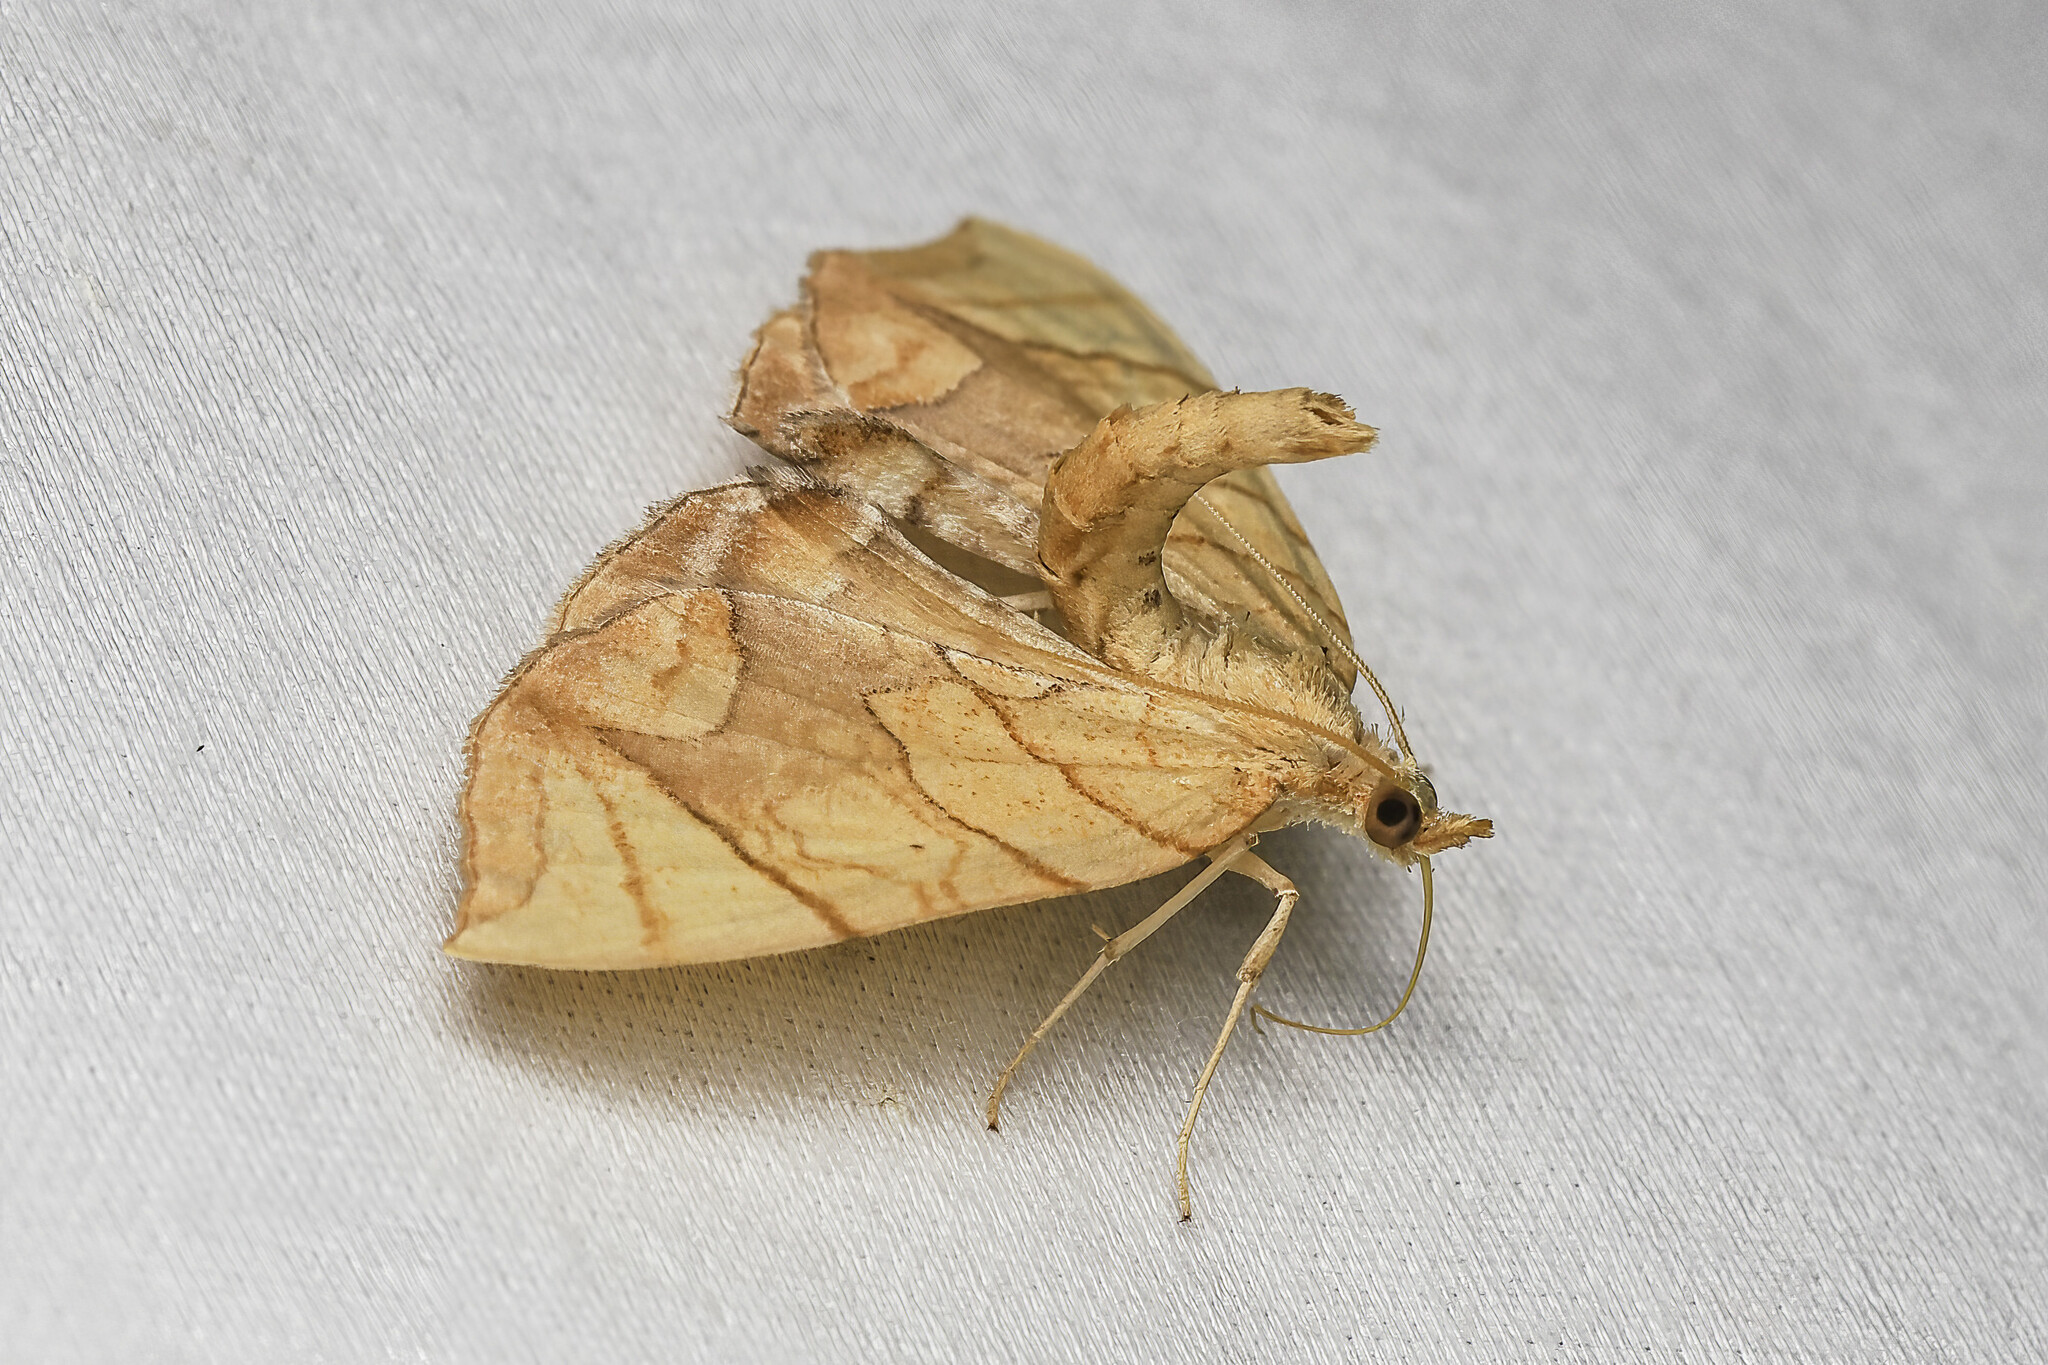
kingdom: Animalia
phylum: Arthropoda
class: Insecta
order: Lepidoptera
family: Geometridae
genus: Eulithis
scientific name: Eulithis gracilineata
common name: Greater grapevine looper moth
